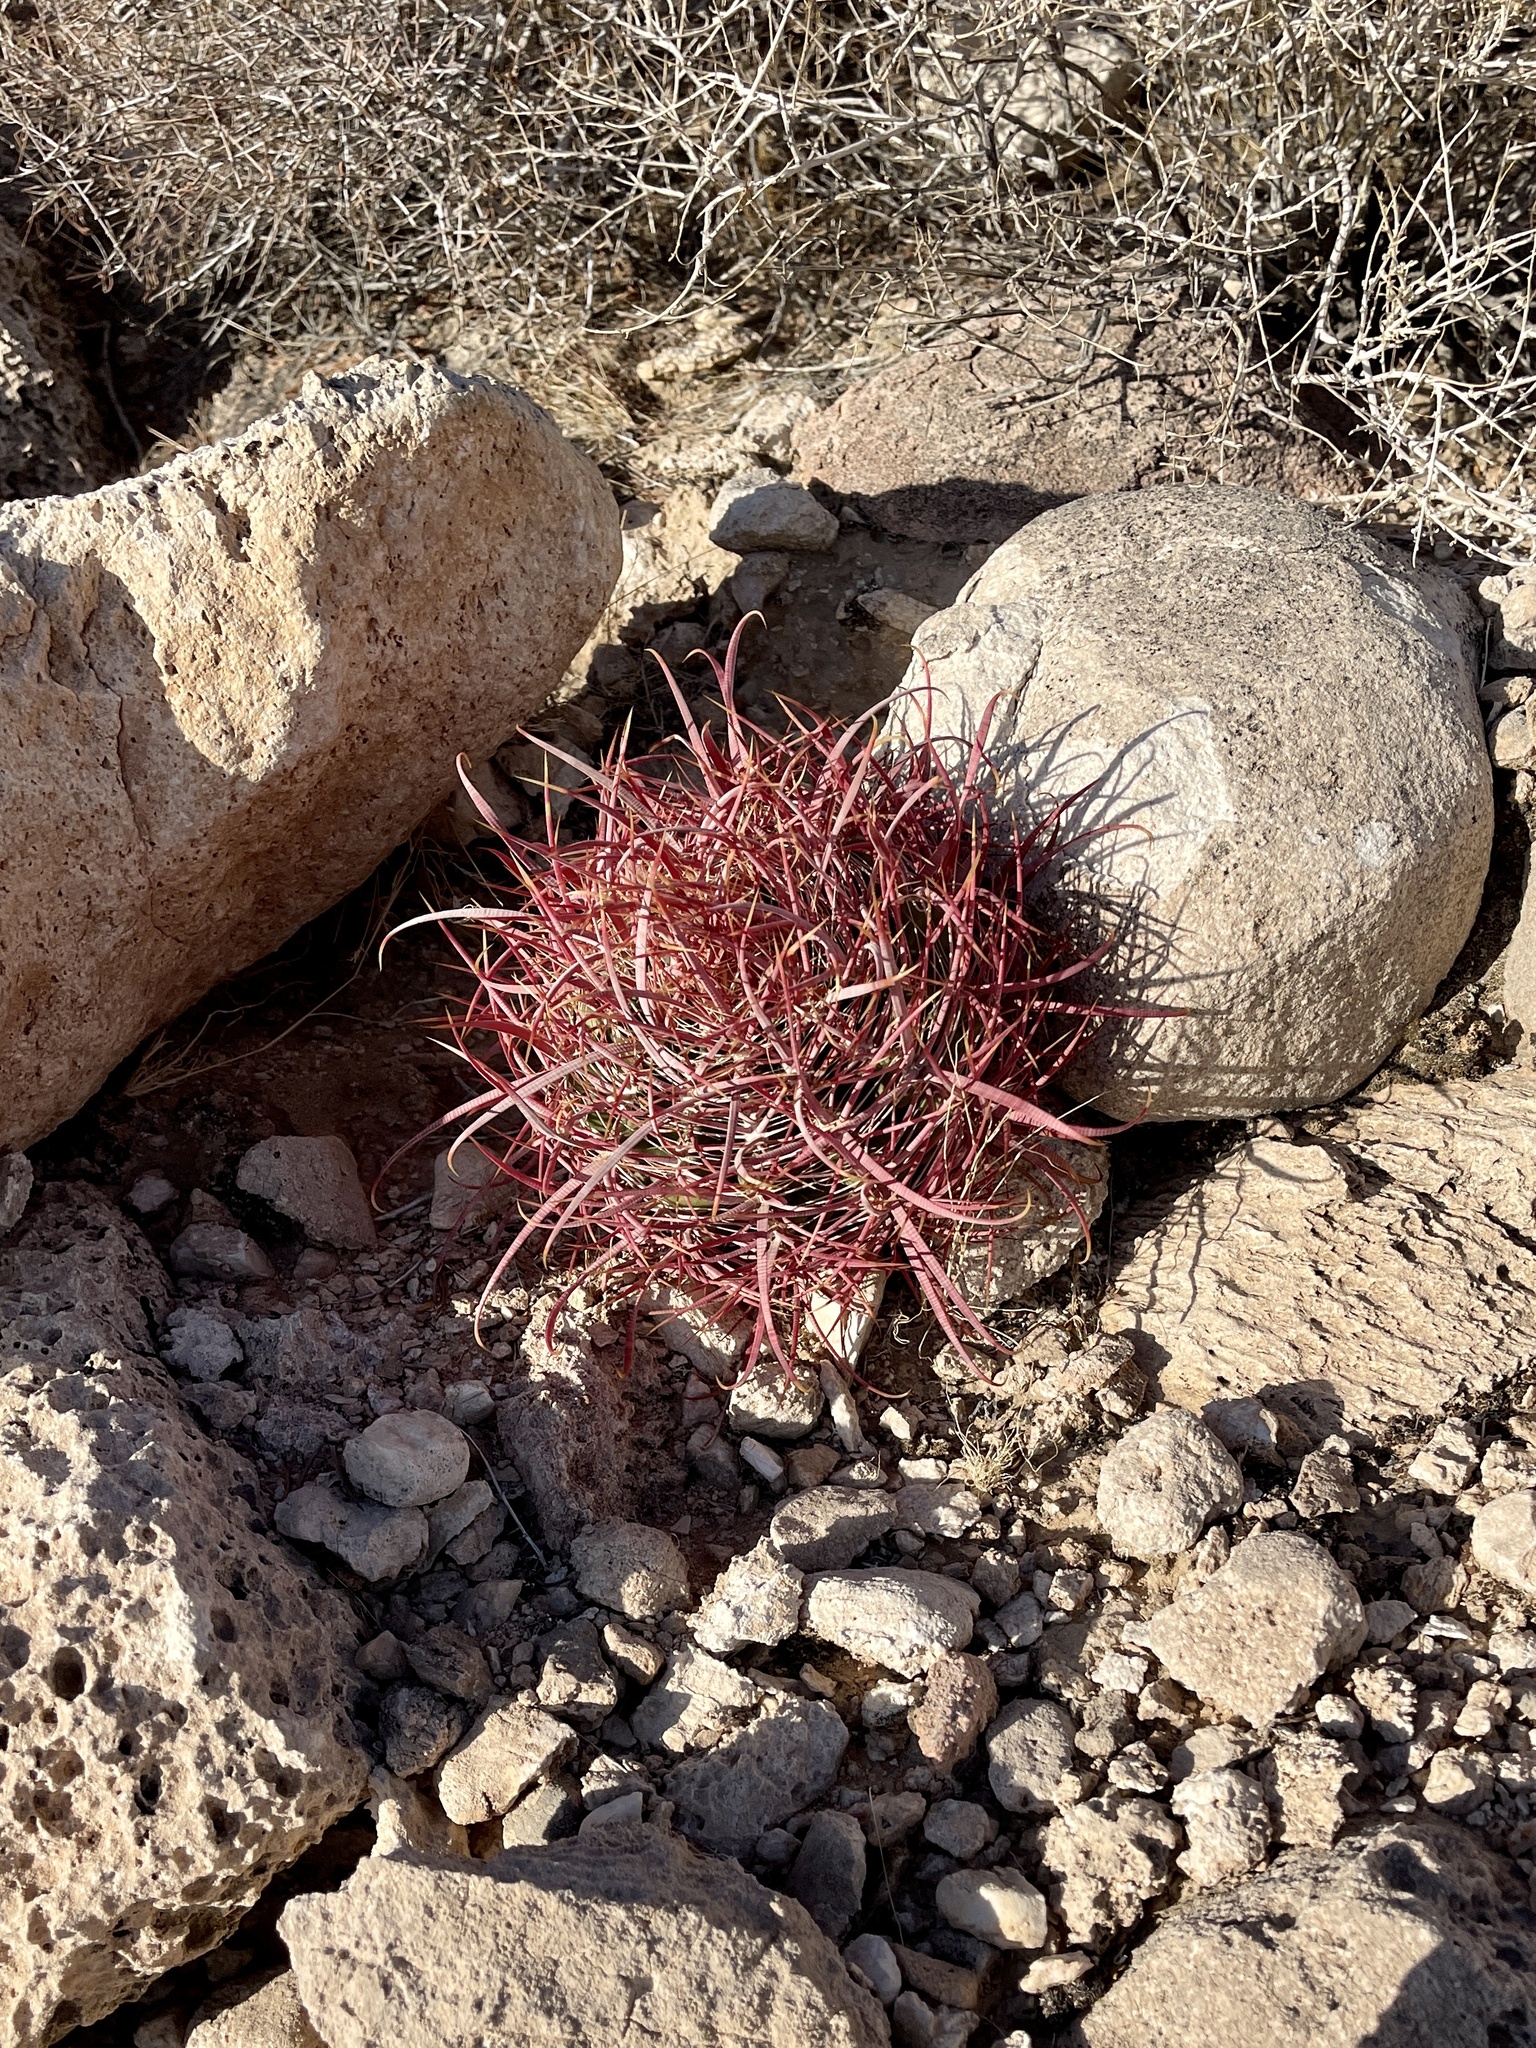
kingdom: Plantae
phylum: Tracheophyta
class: Magnoliopsida
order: Caryophyllales
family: Cactaceae
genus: Ferocactus
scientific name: Ferocactus cylindraceus
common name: California barrel cactus
